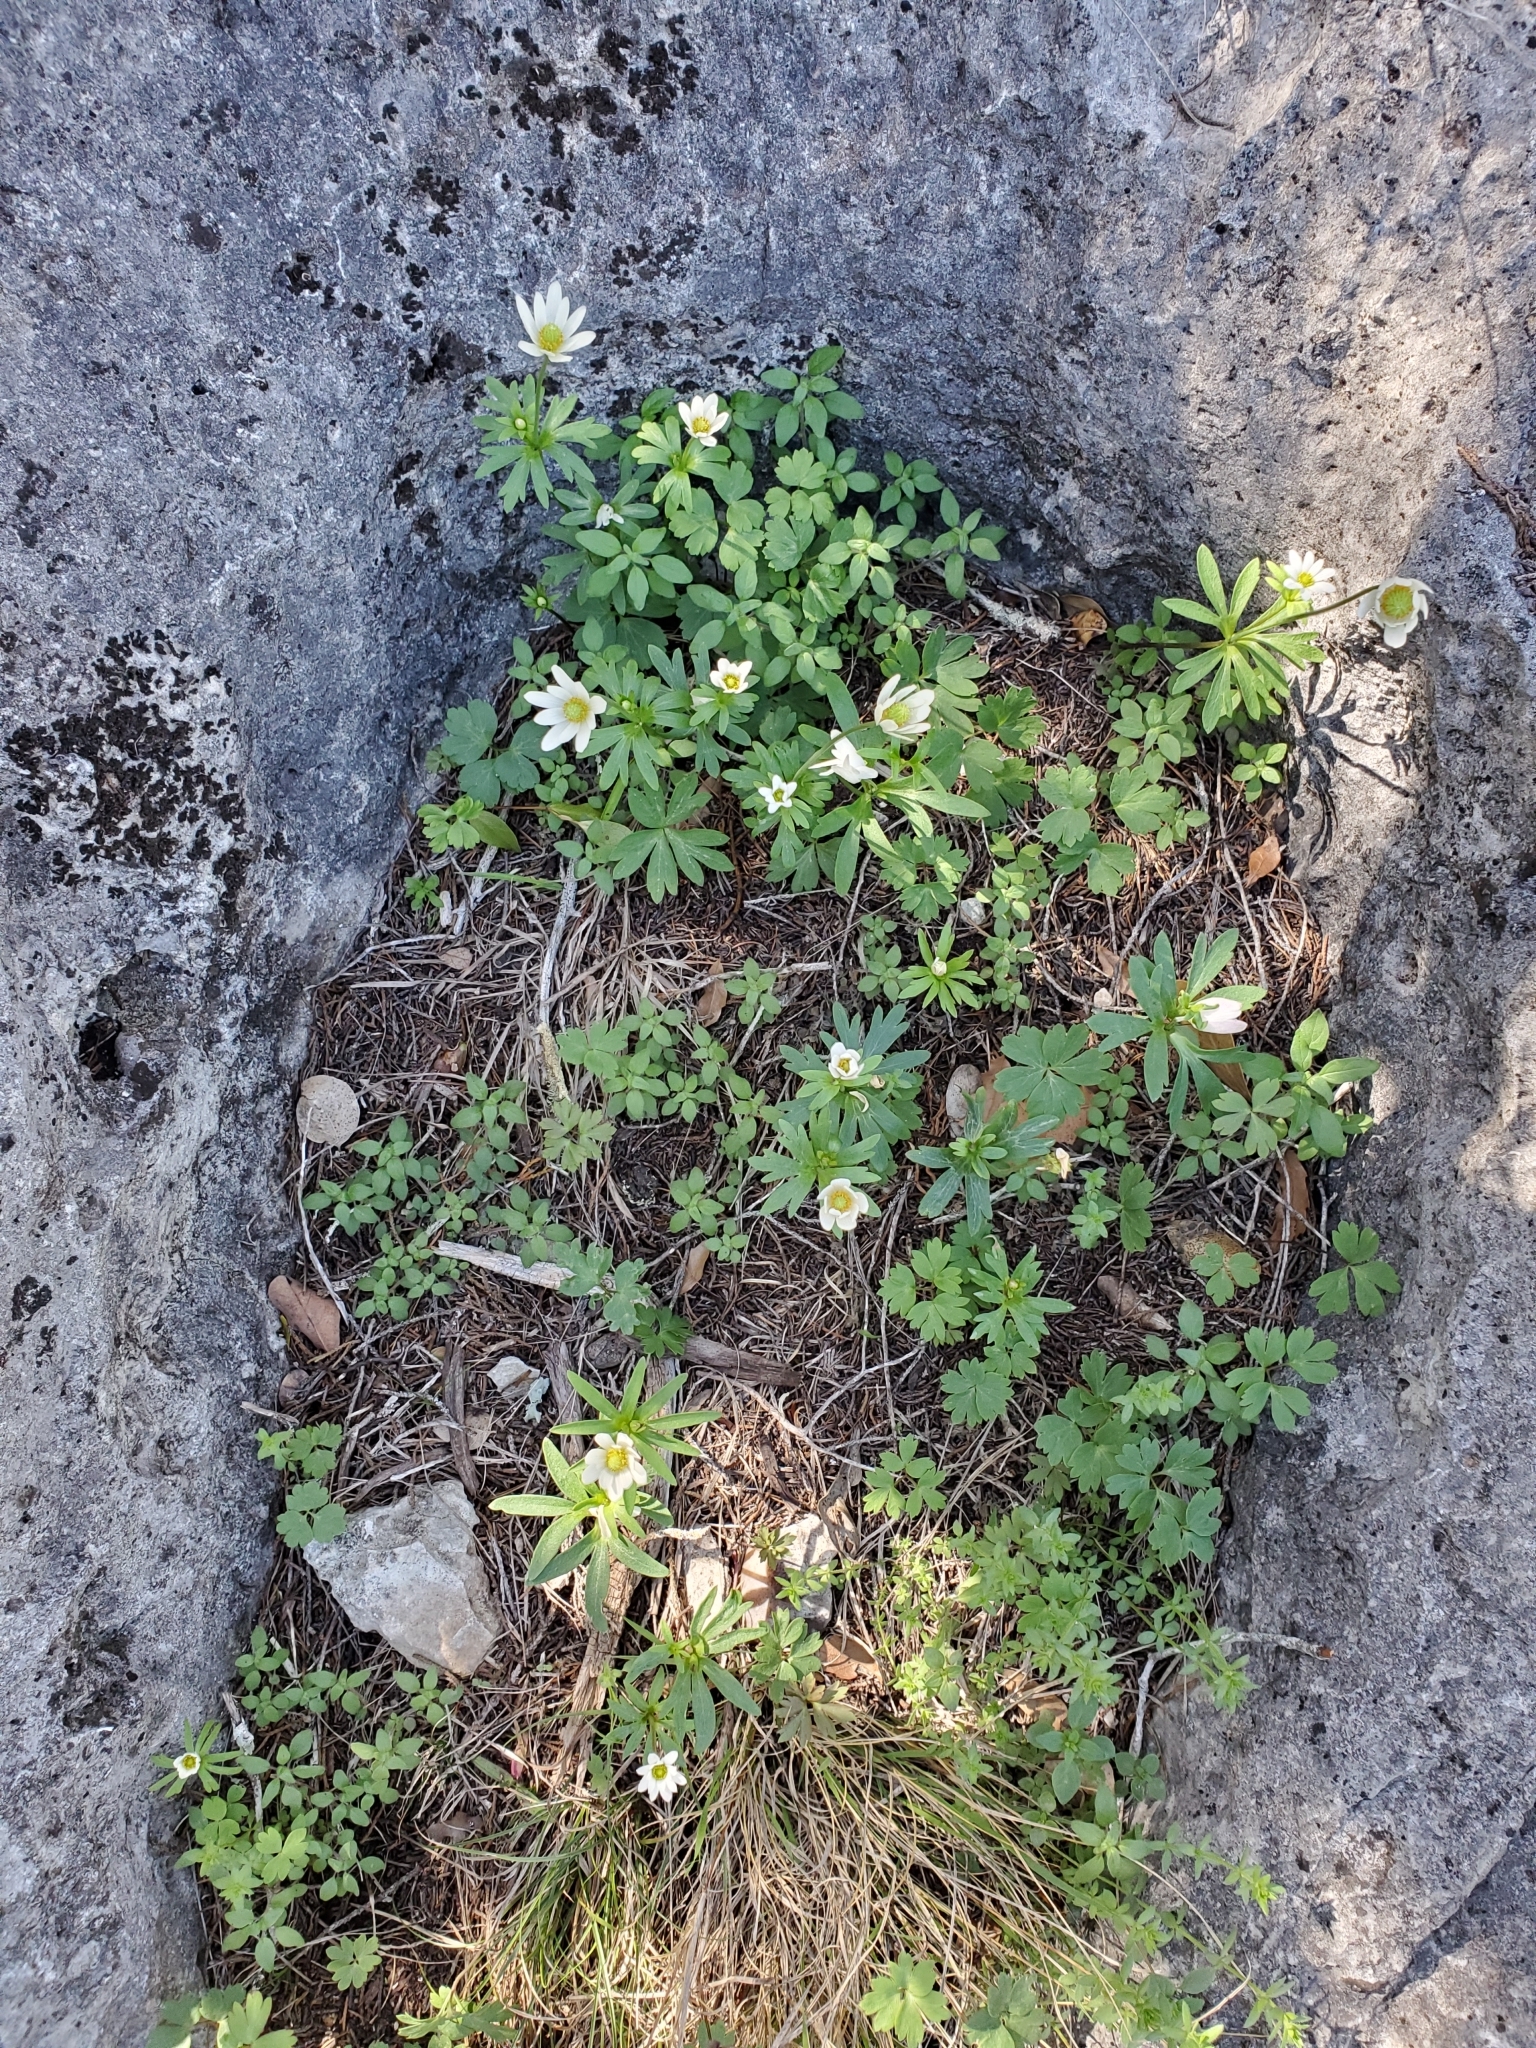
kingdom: Plantae
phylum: Tracheophyta
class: Magnoliopsida
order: Ranunculales
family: Ranunculaceae
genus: Anemone
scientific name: Anemone edwardsiana
